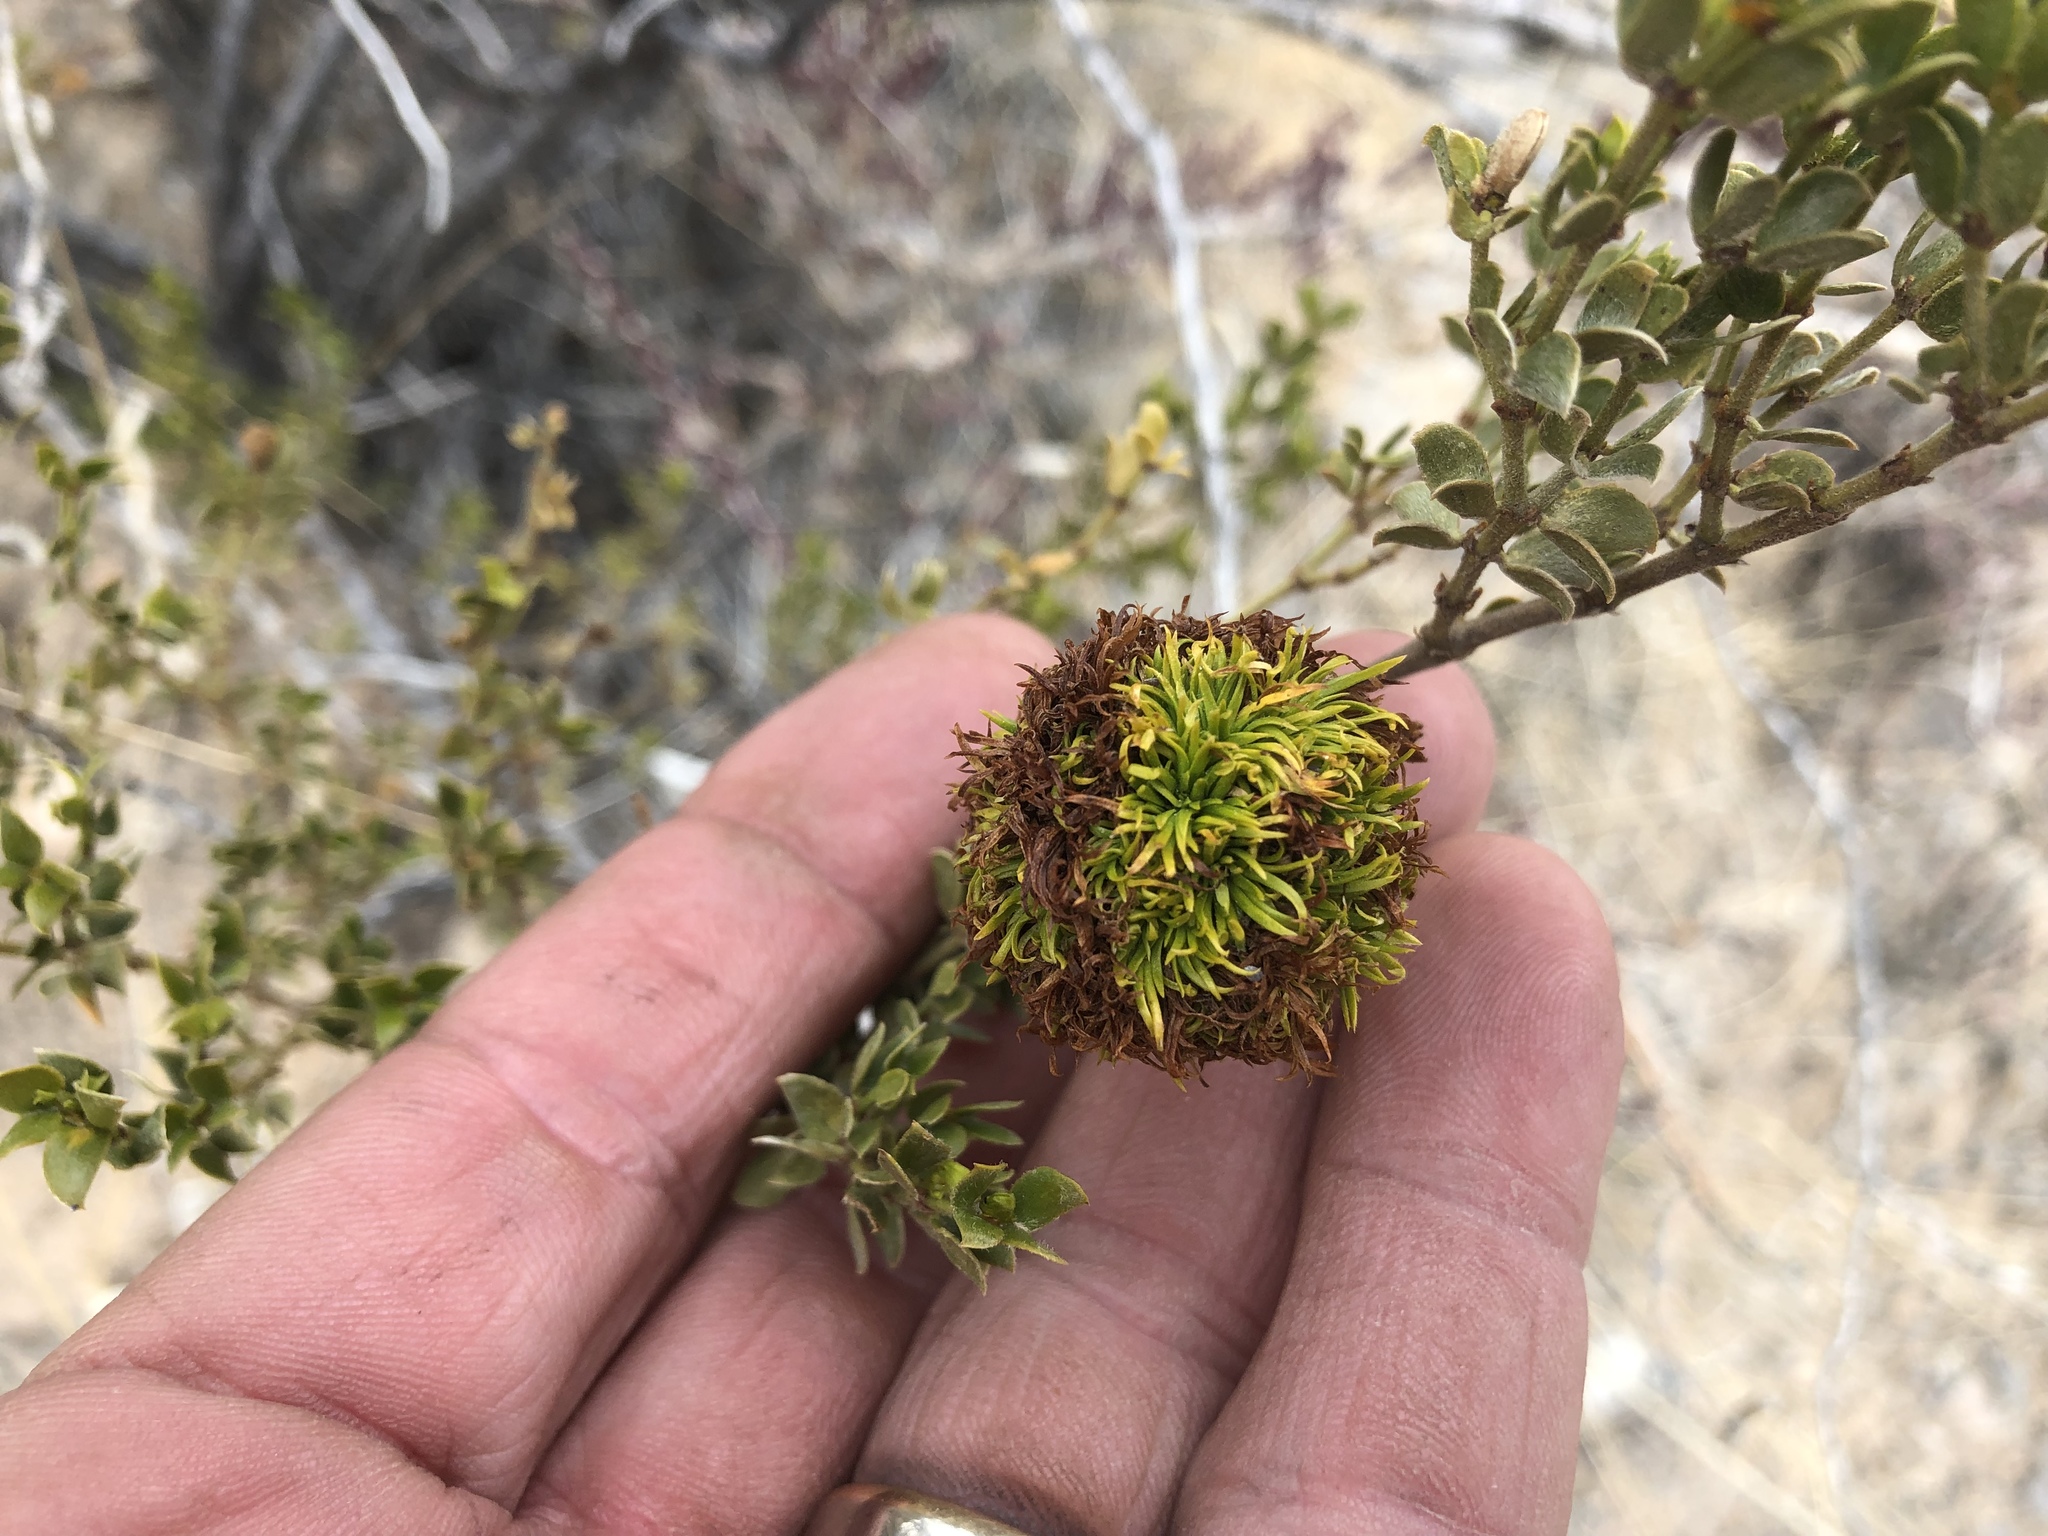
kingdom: Animalia
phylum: Arthropoda
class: Insecta
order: Diptera
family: Cecidomyiidae
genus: Asphondylia
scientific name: Asphondylia auripila
